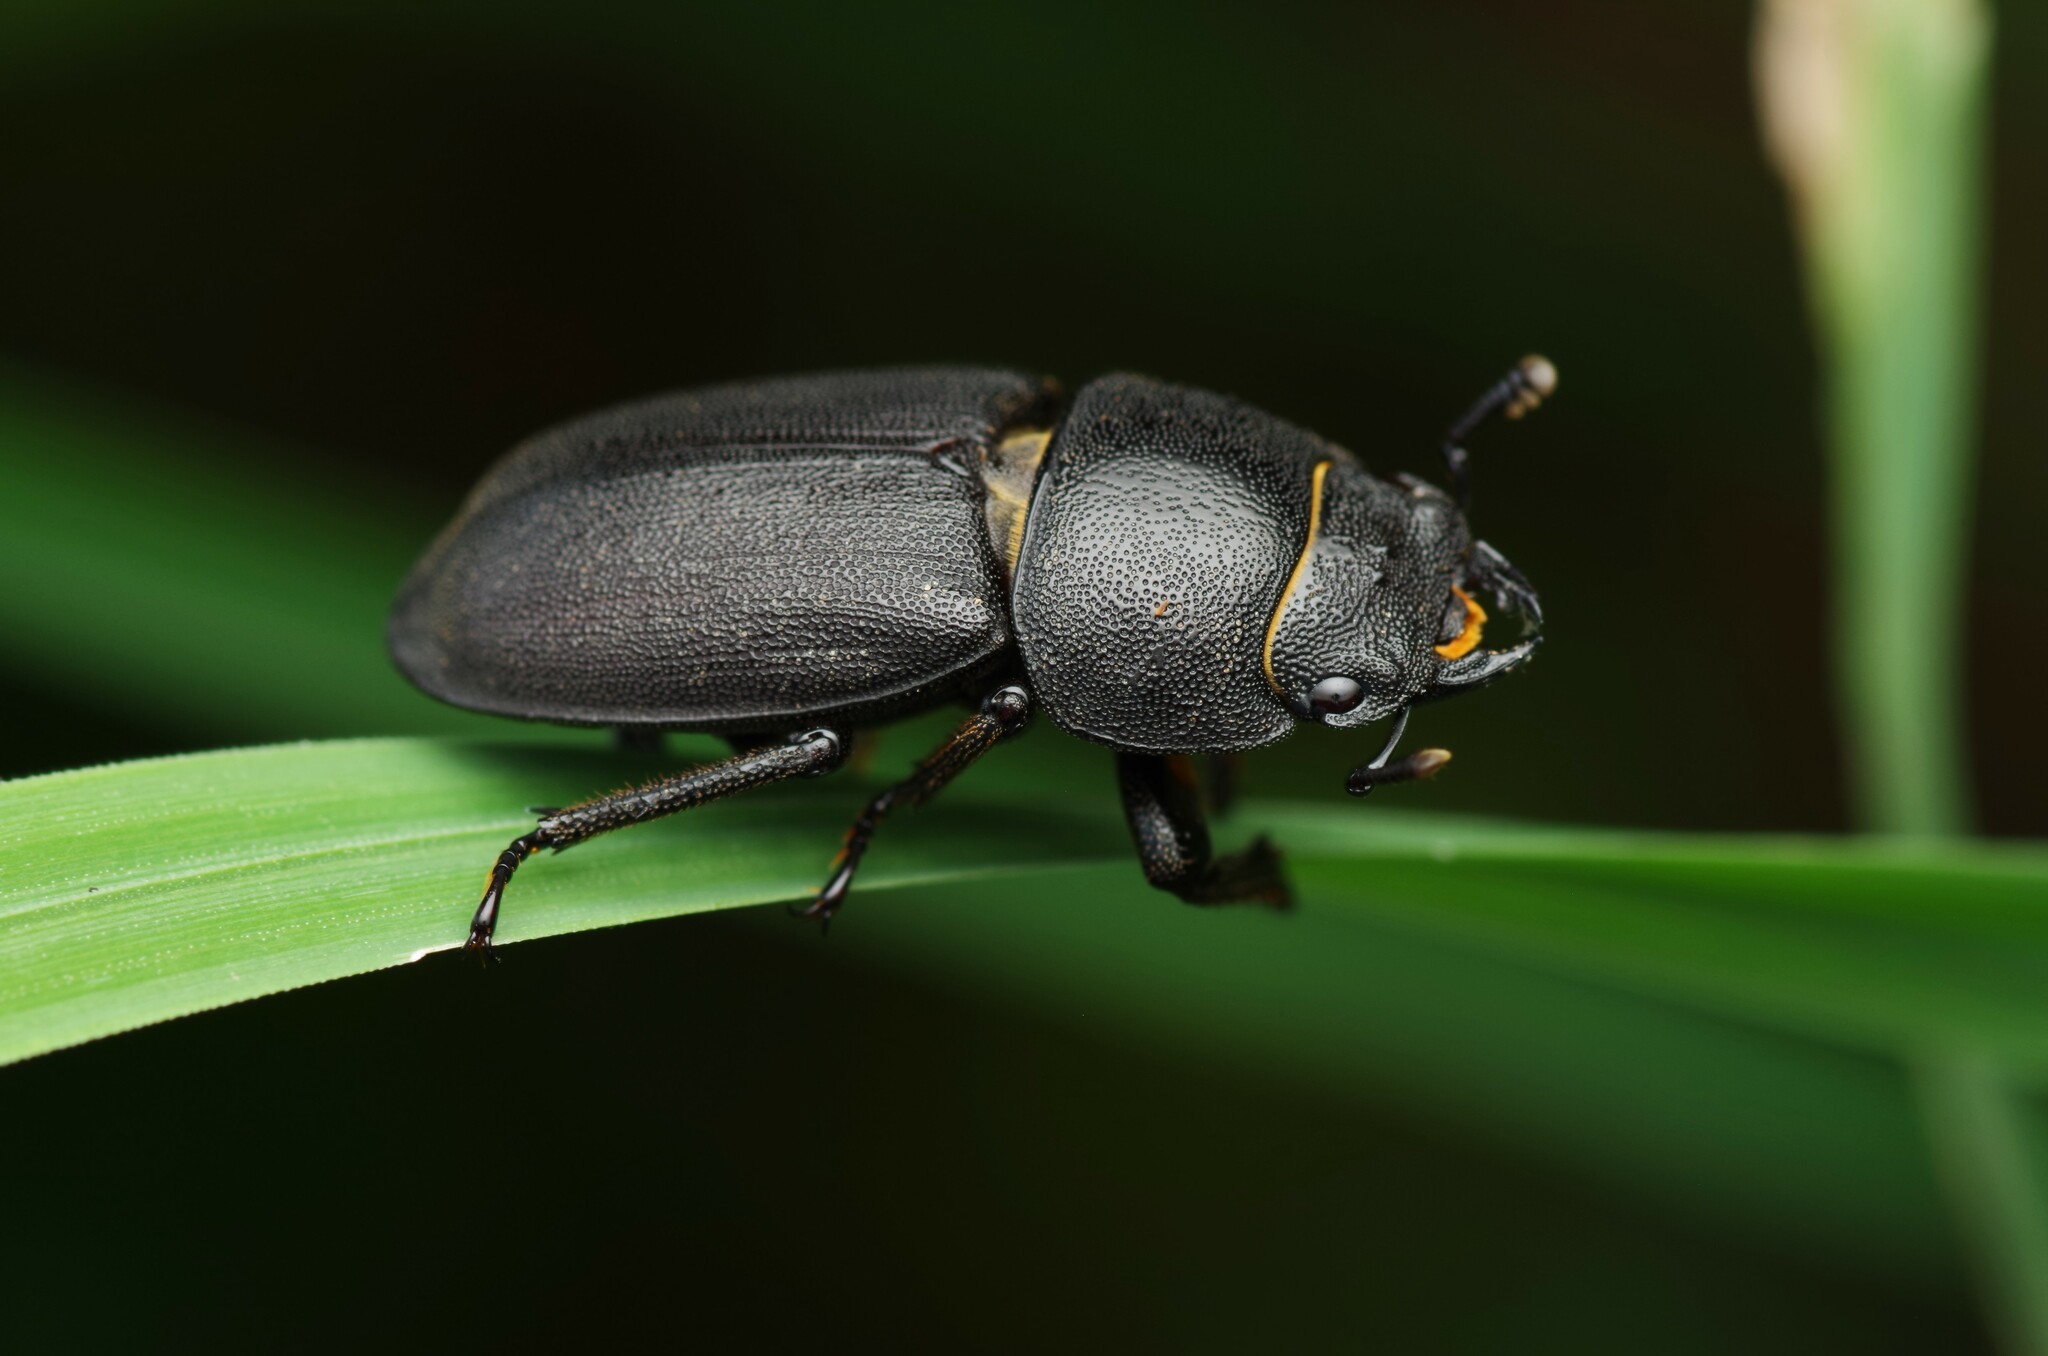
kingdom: Animalia
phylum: Arthropoda
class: Insecta
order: Coleoptera
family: Lucanidae
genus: Dorcus
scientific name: Dorcus parallelipipedus
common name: Lesser stag beetle
